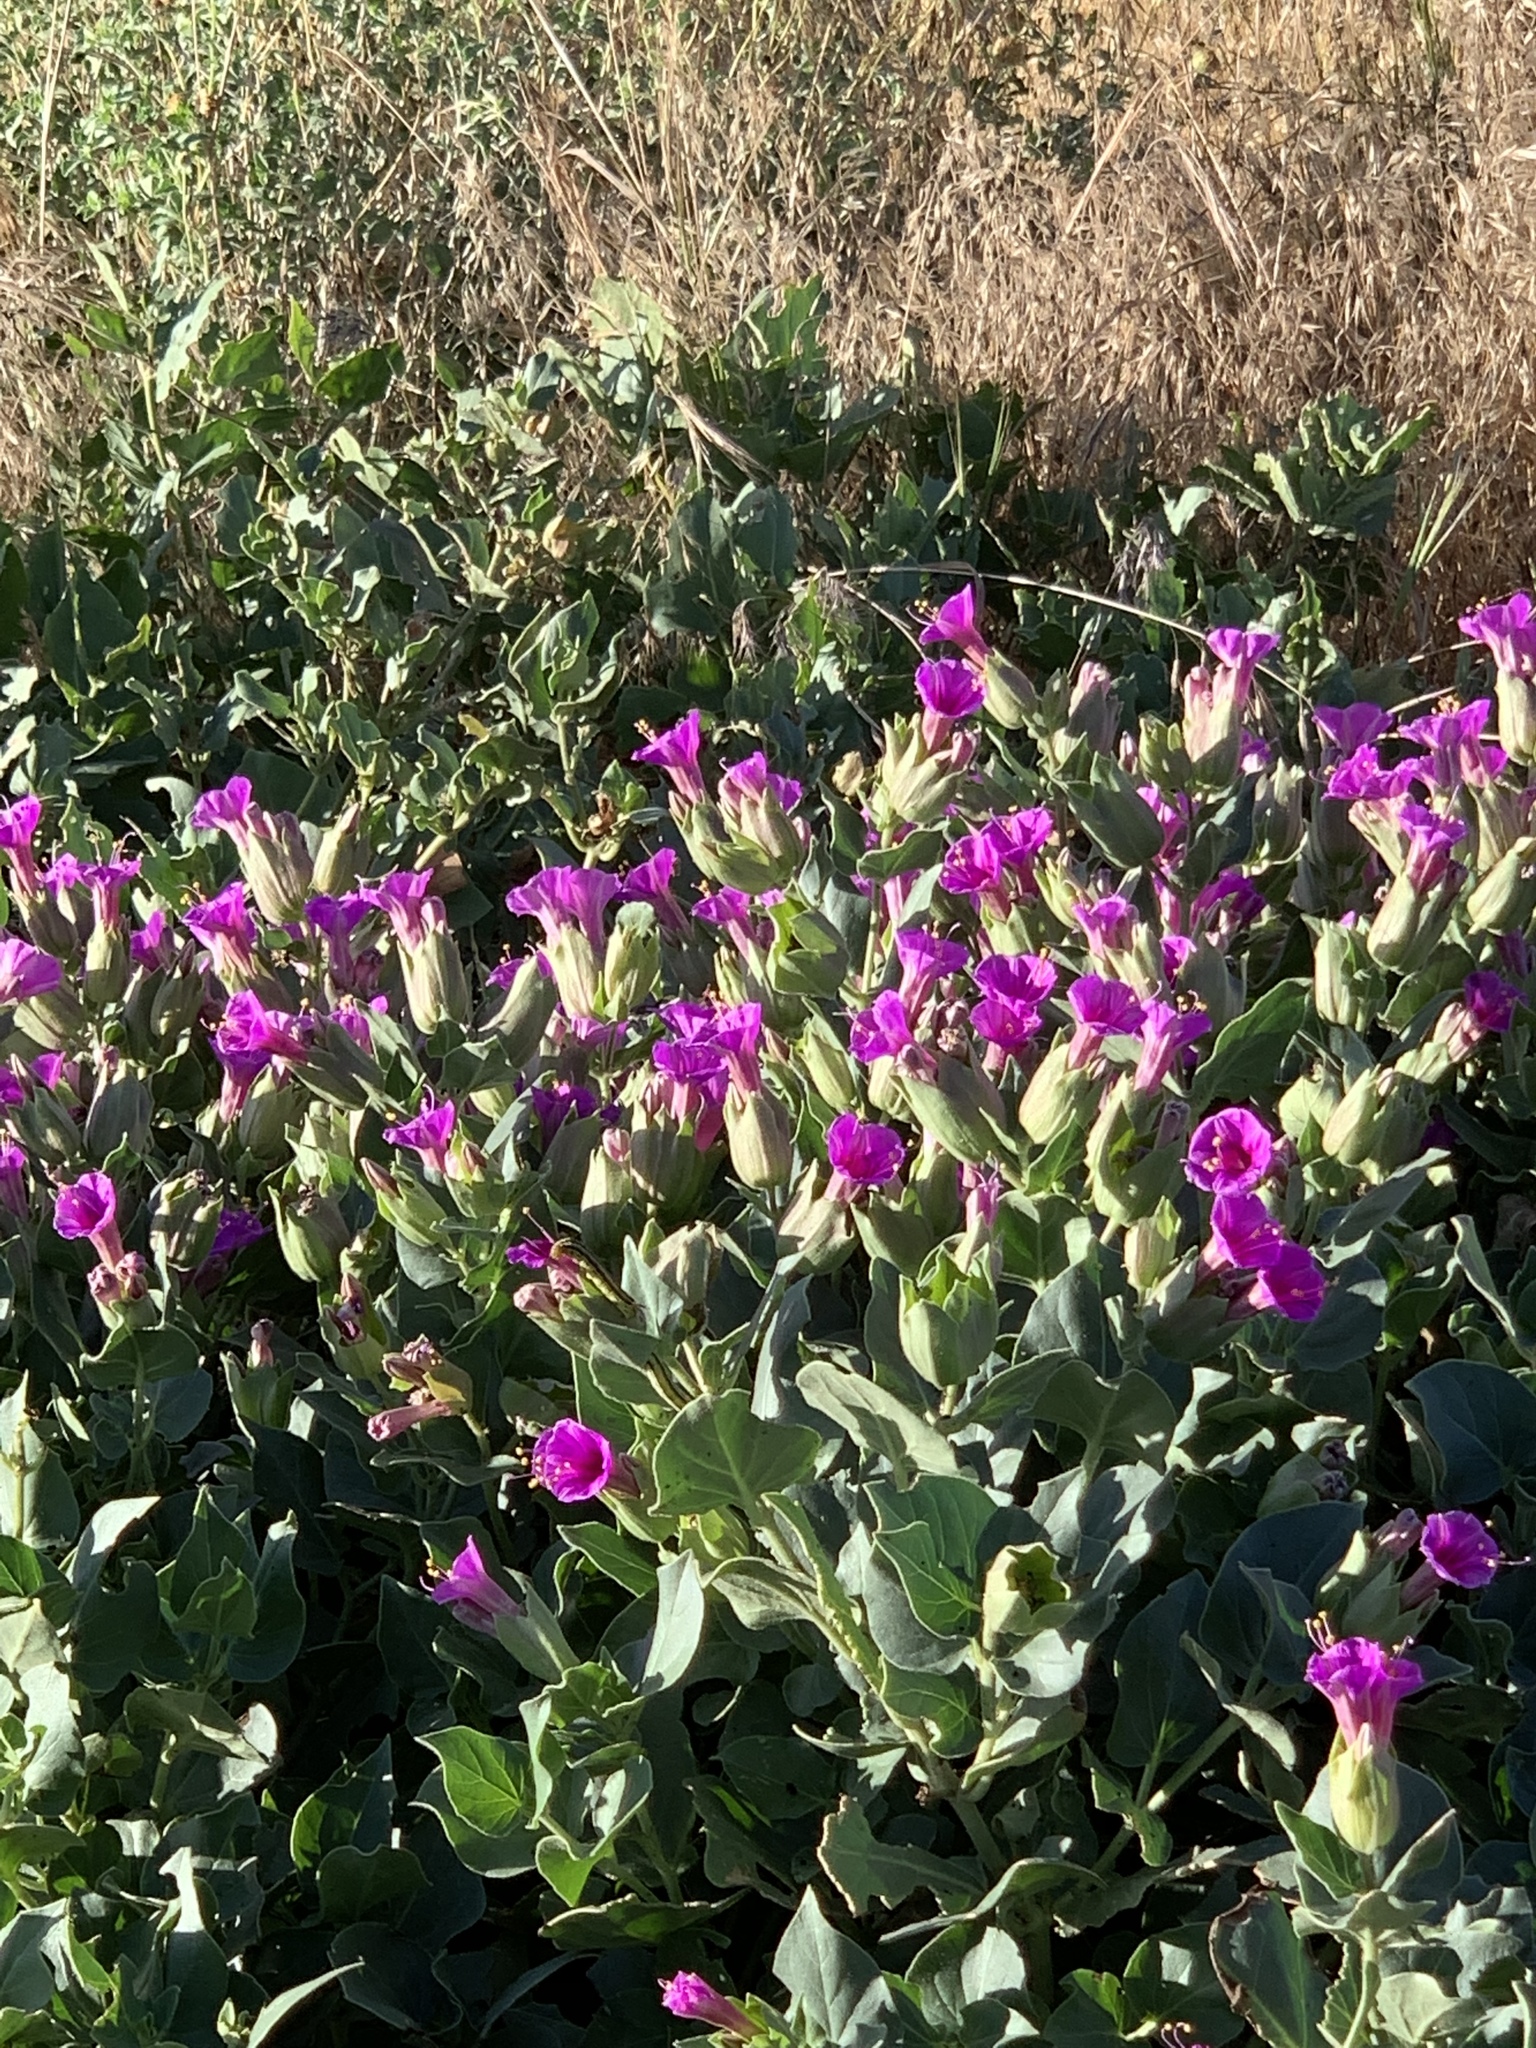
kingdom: Plantae
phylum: Tracheophyta
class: Magnoliopsida
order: Caryophyllales
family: Nyctaginaceae
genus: Mirabilis
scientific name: Mirabilis multiflora
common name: Froebel's four-o'clock
